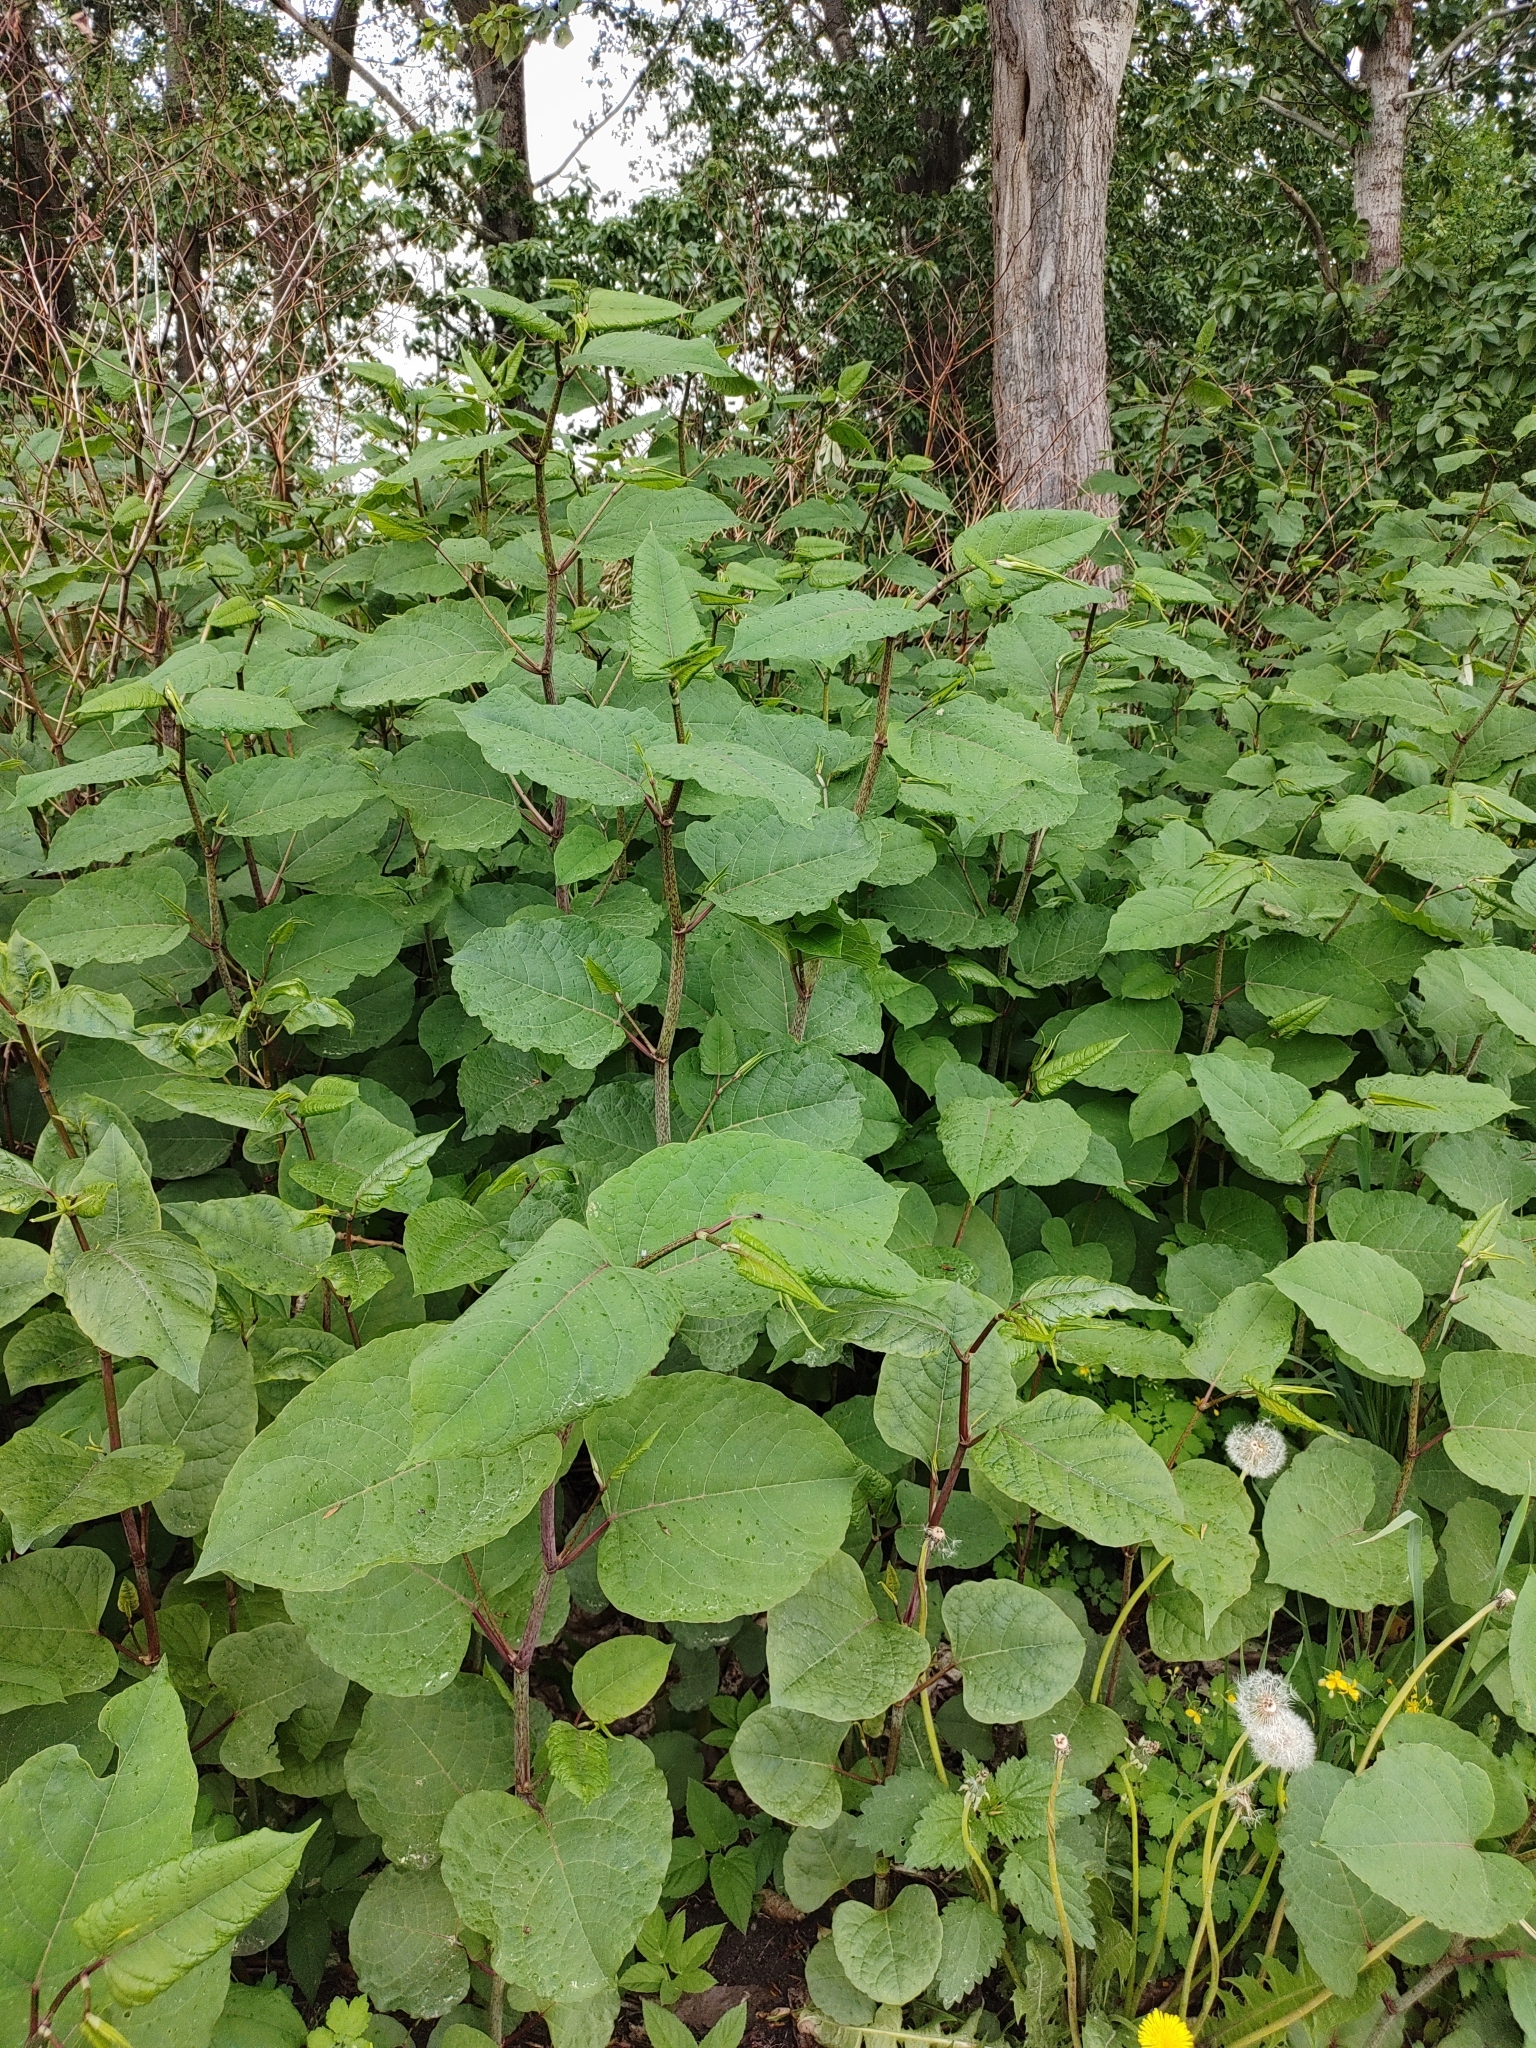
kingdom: Plantae
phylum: Tracheophyta
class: Magnoliopsida
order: Caryophyllales
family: Polygonaceae
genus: Reynoutria
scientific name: Reynoutria japonica
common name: Japanese knotweed
